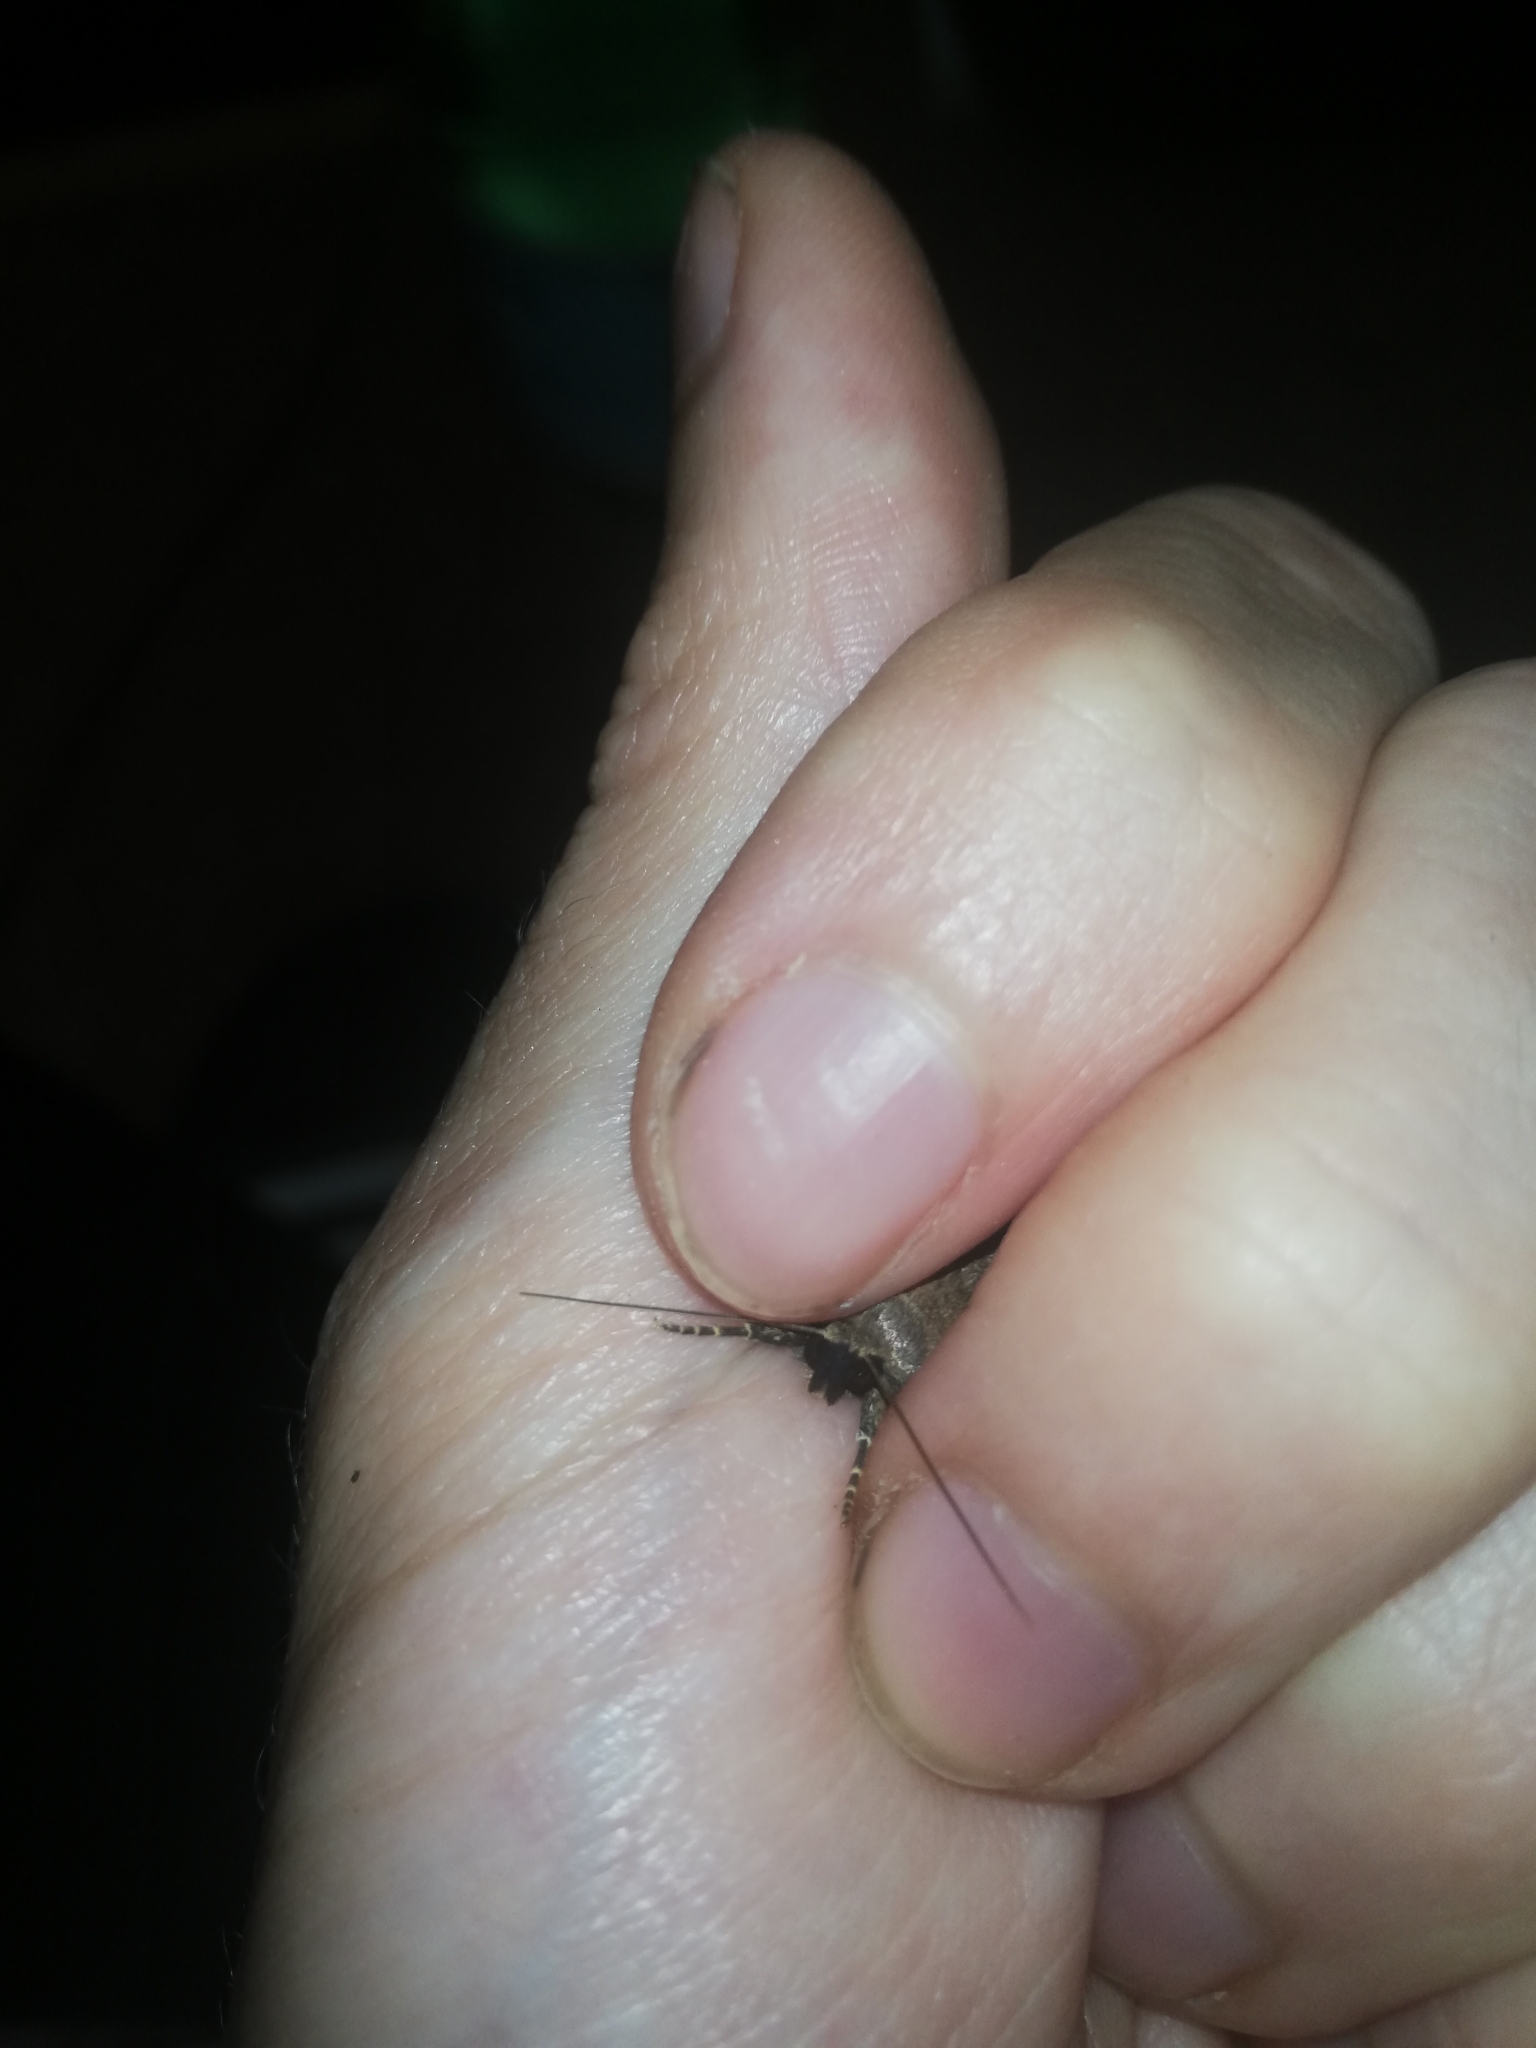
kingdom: Animalia
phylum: Arthropoda
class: Insecta
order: Lepidoptera
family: Noctuidae
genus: Amphipyra
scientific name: Amphipyra tragopoginis
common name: Mouse moth
